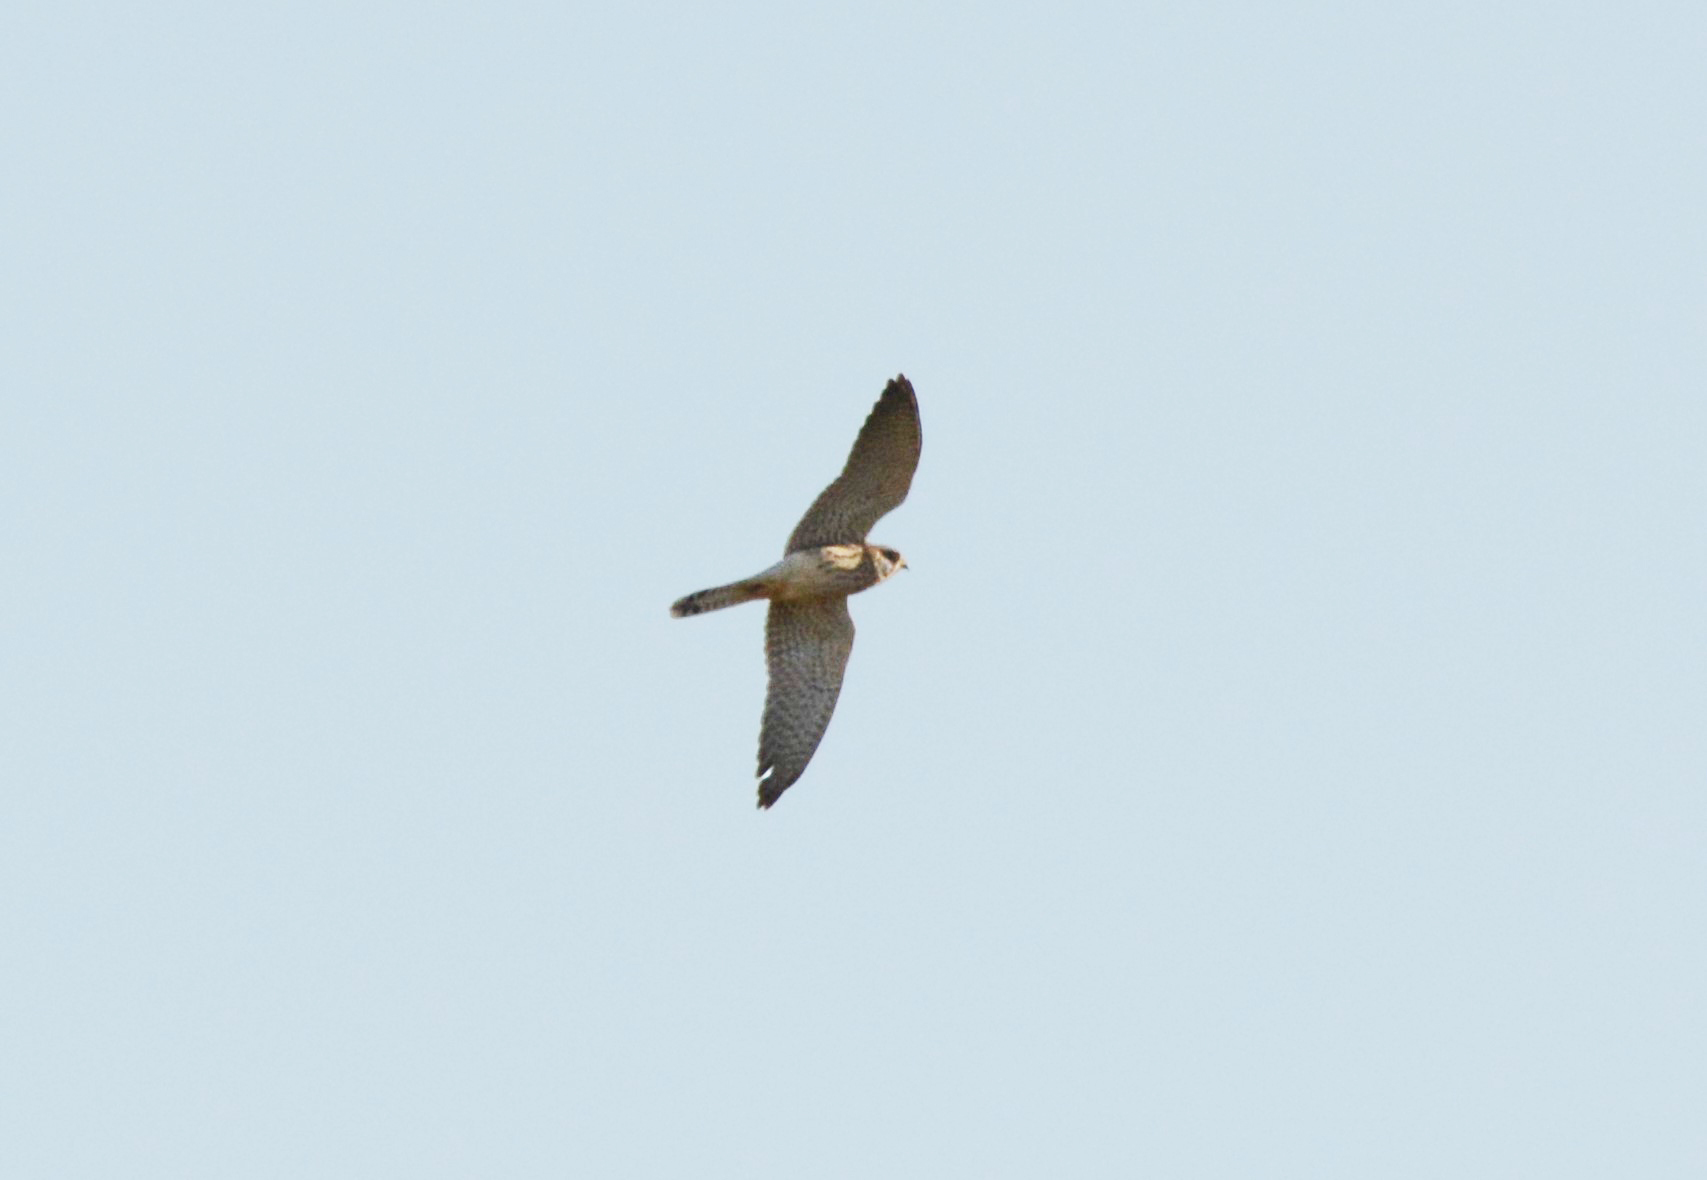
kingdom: Animalia
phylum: Chordata
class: Aves
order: Falconiformes
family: Falconidae
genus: Falco
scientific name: Falco vespertinus
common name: Red-footed falcon
